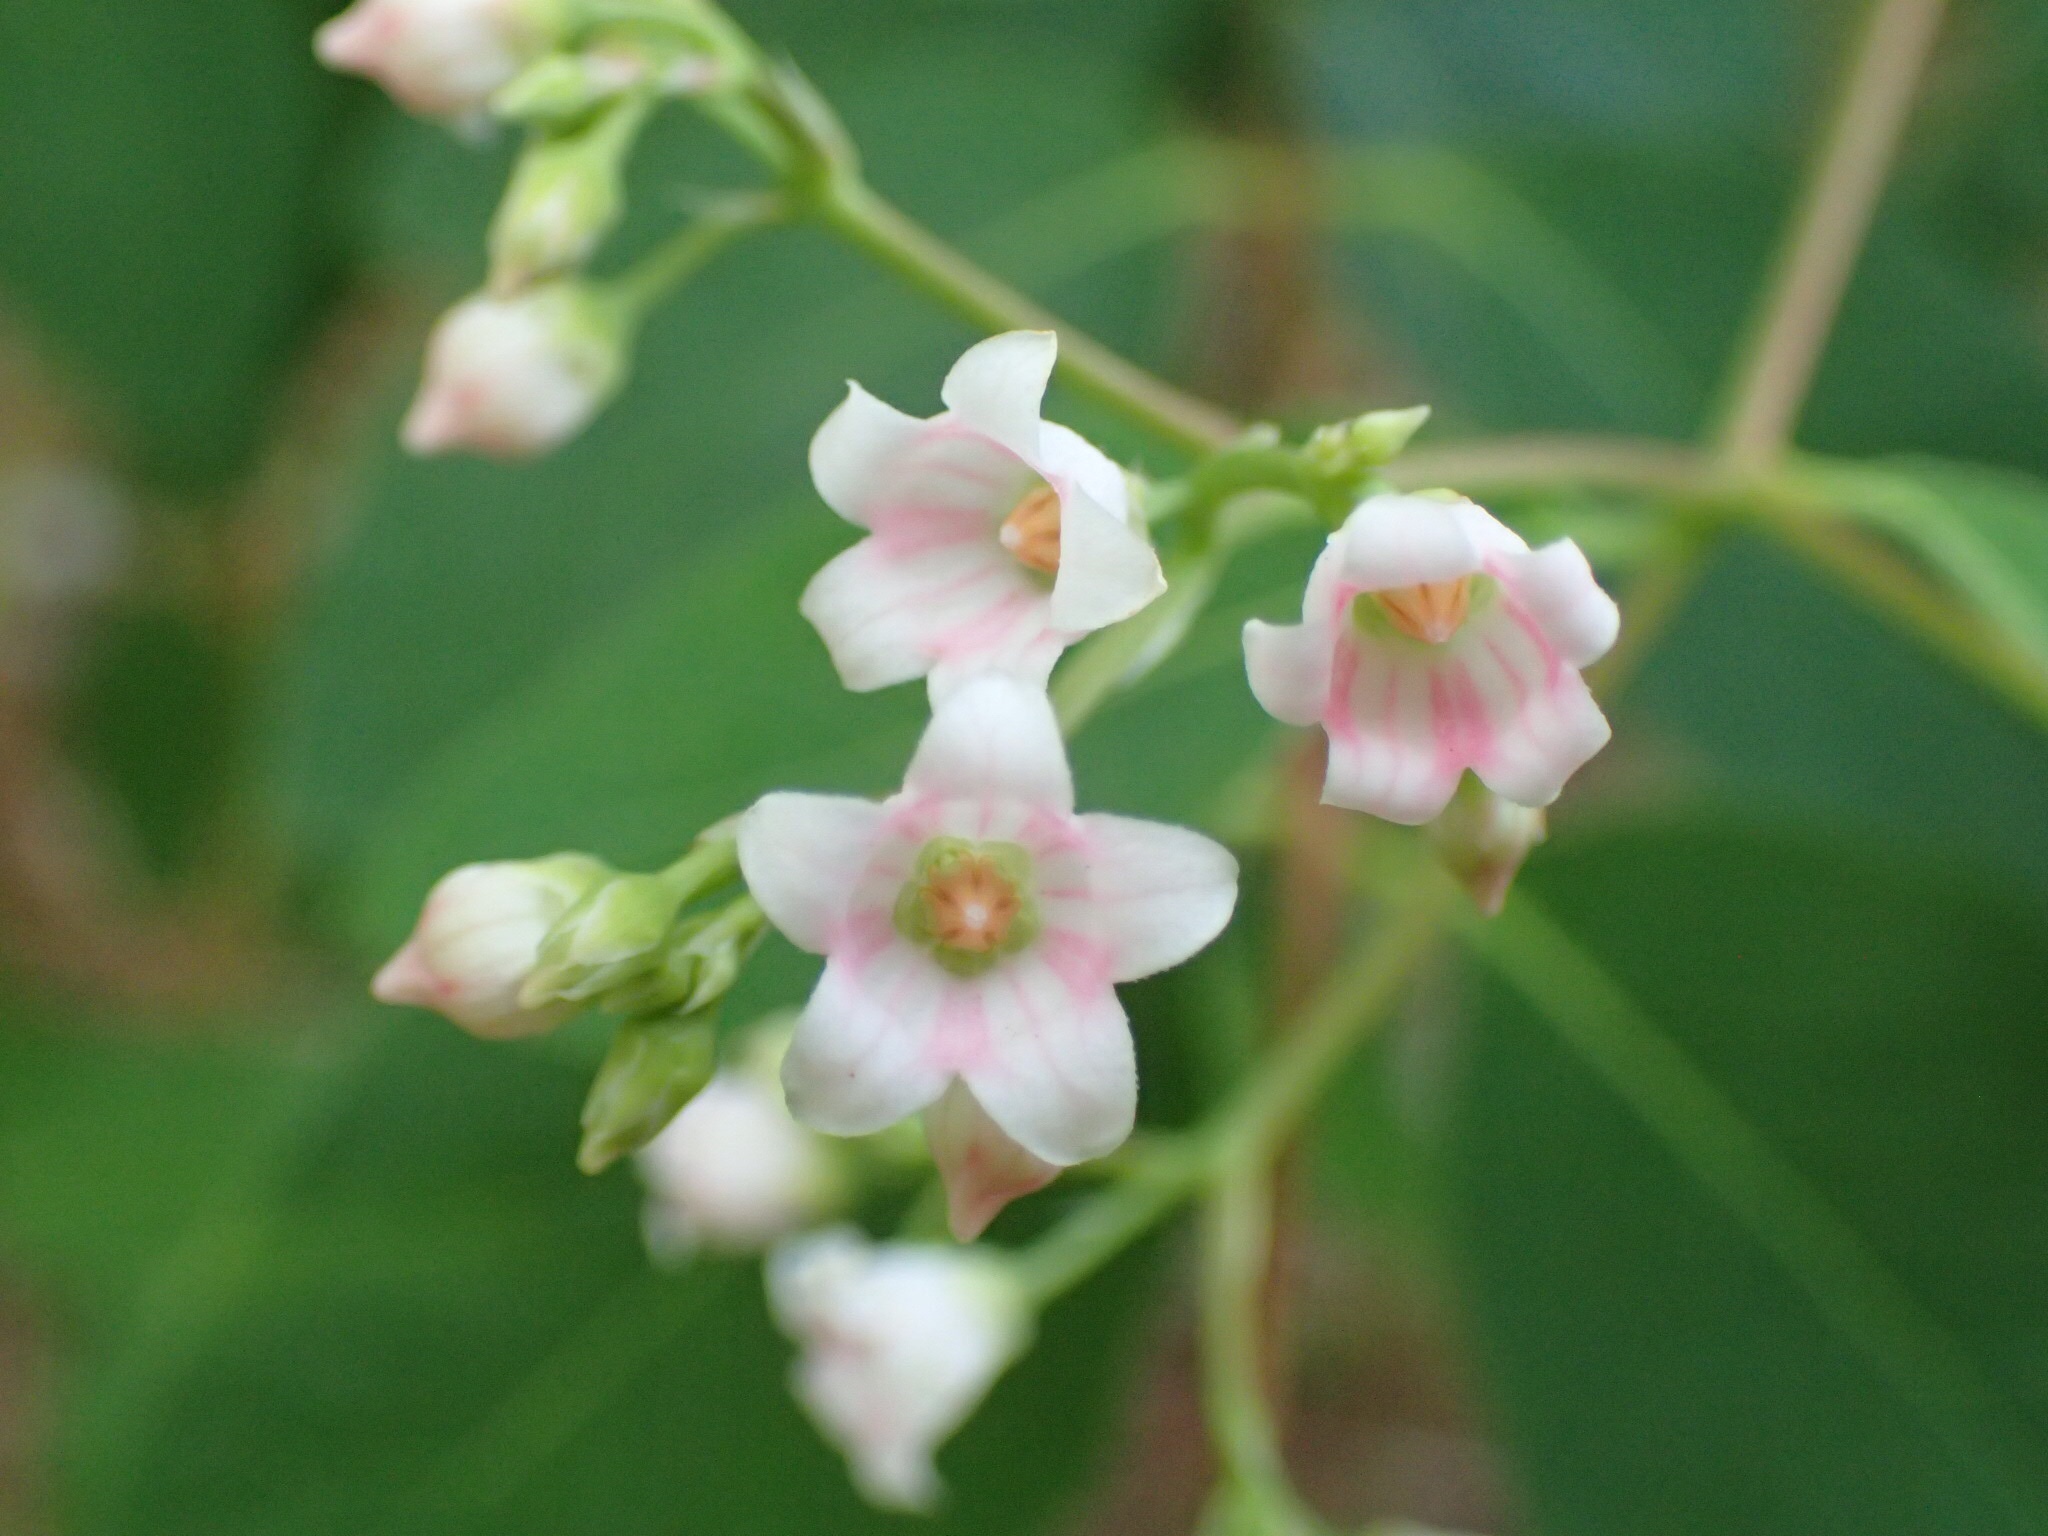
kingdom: Plantae
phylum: Tracheophyta
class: Magnoliopsida
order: Gentianales
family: Apocynaceae
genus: Apocynum
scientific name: Apocynum androsaemifolium
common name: Spreading dogbane
